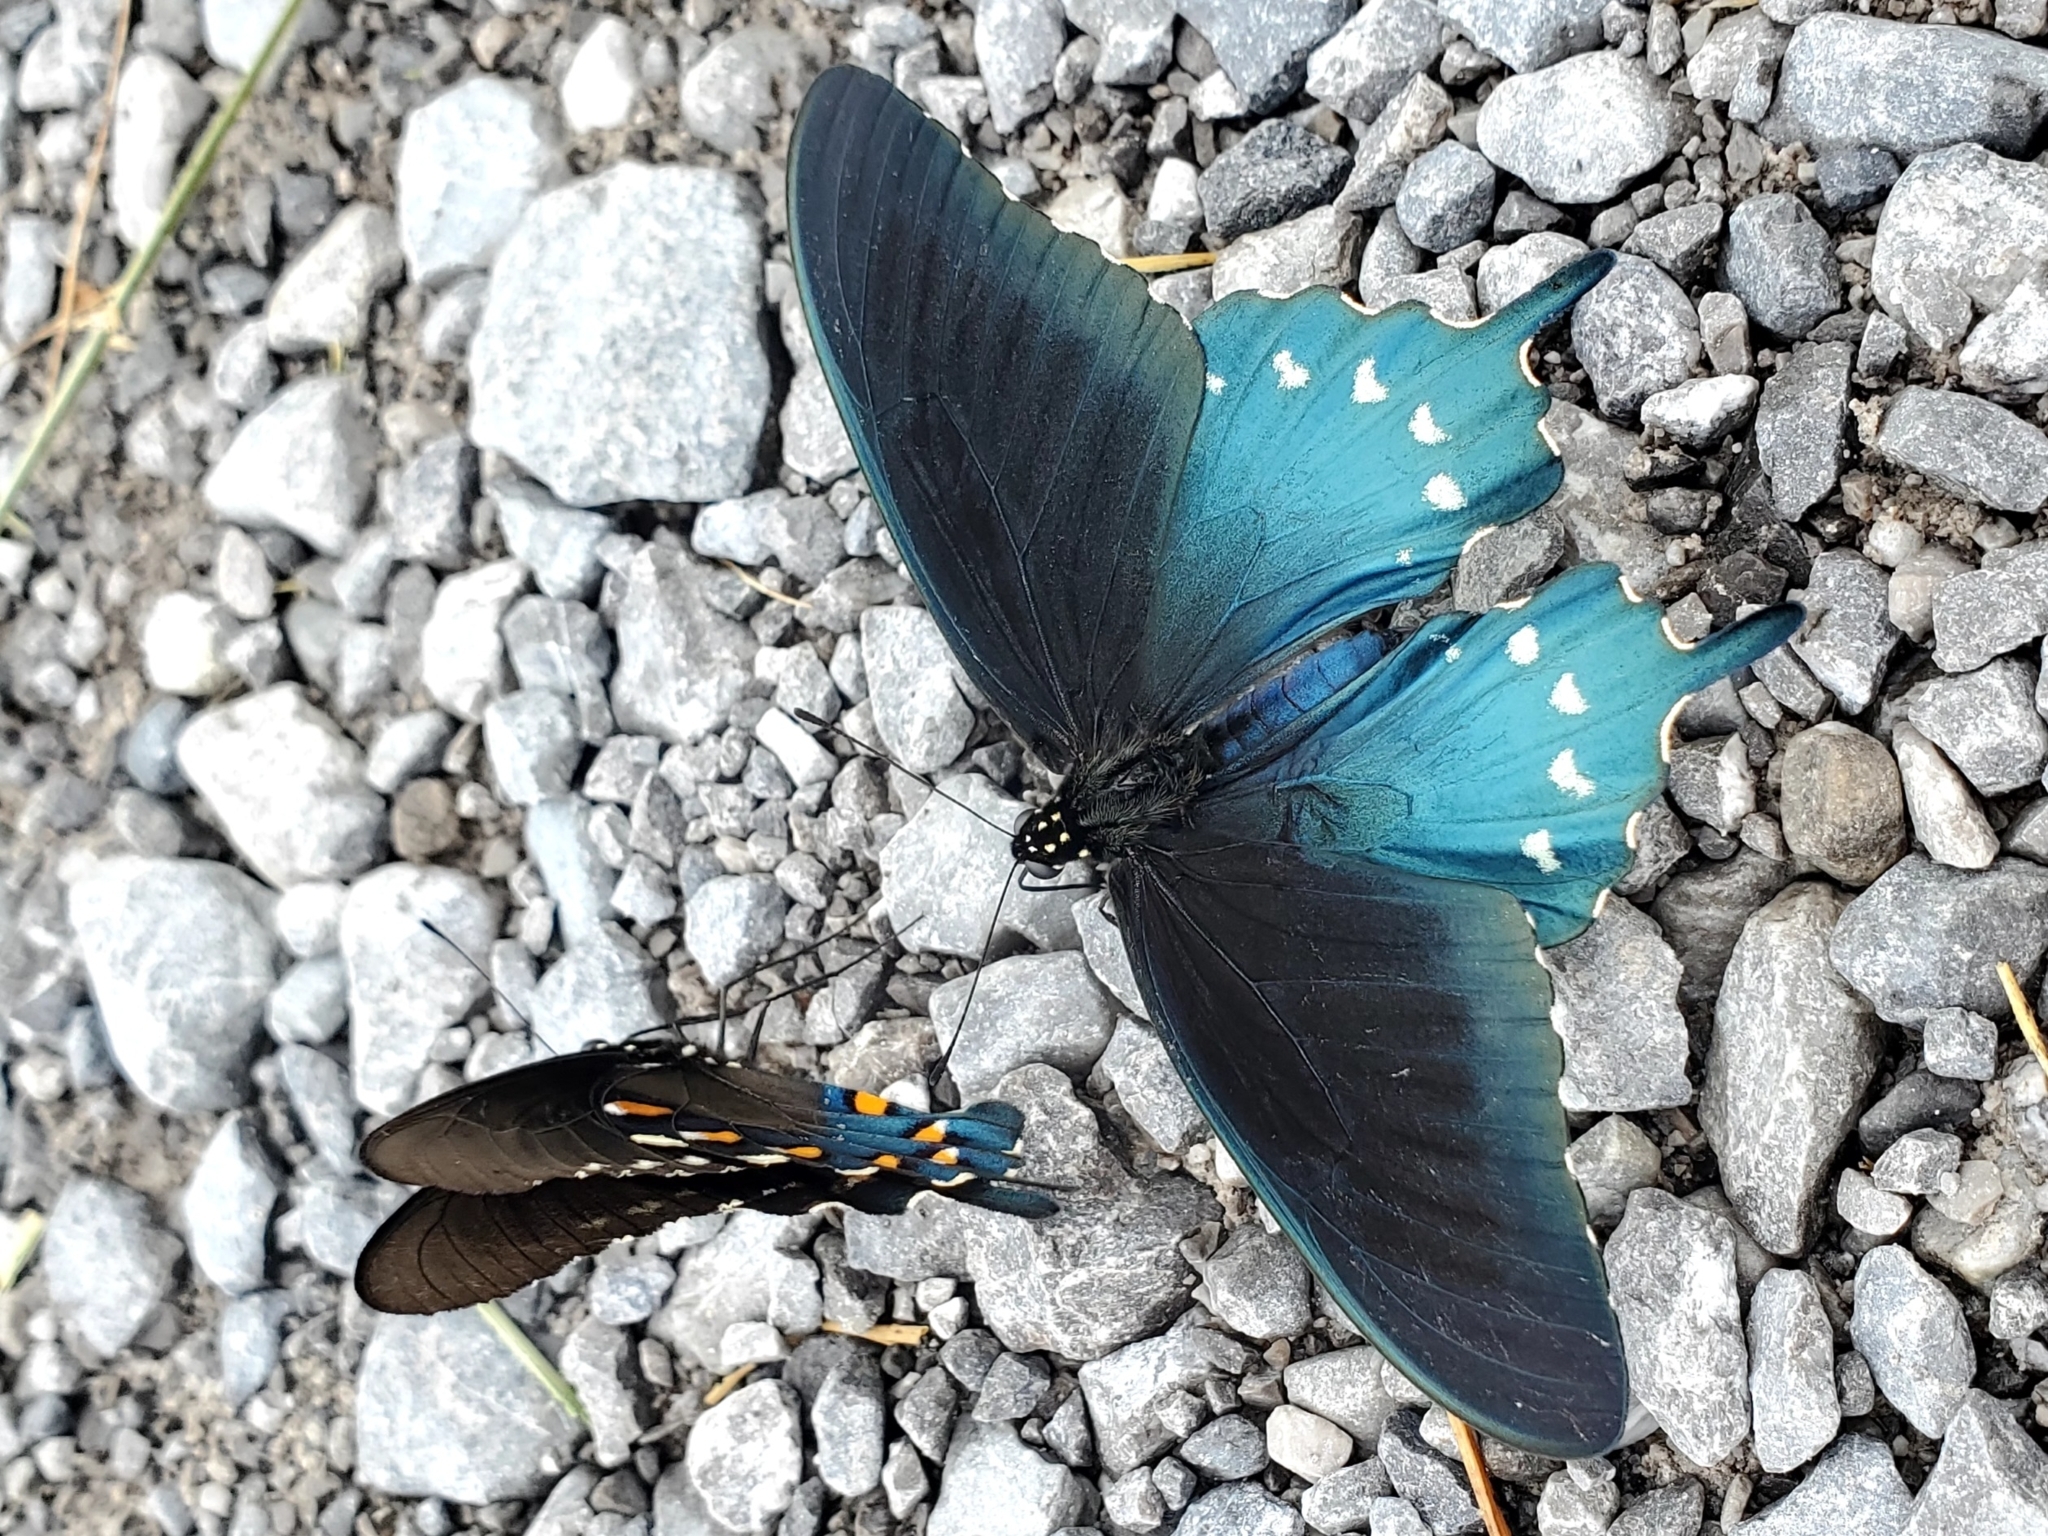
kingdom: Animalia
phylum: Arthropoda
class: Insecta
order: Lepidoptera
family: Papilionidae
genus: Battus
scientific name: Battus philenor
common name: Pipevine swallowtail
